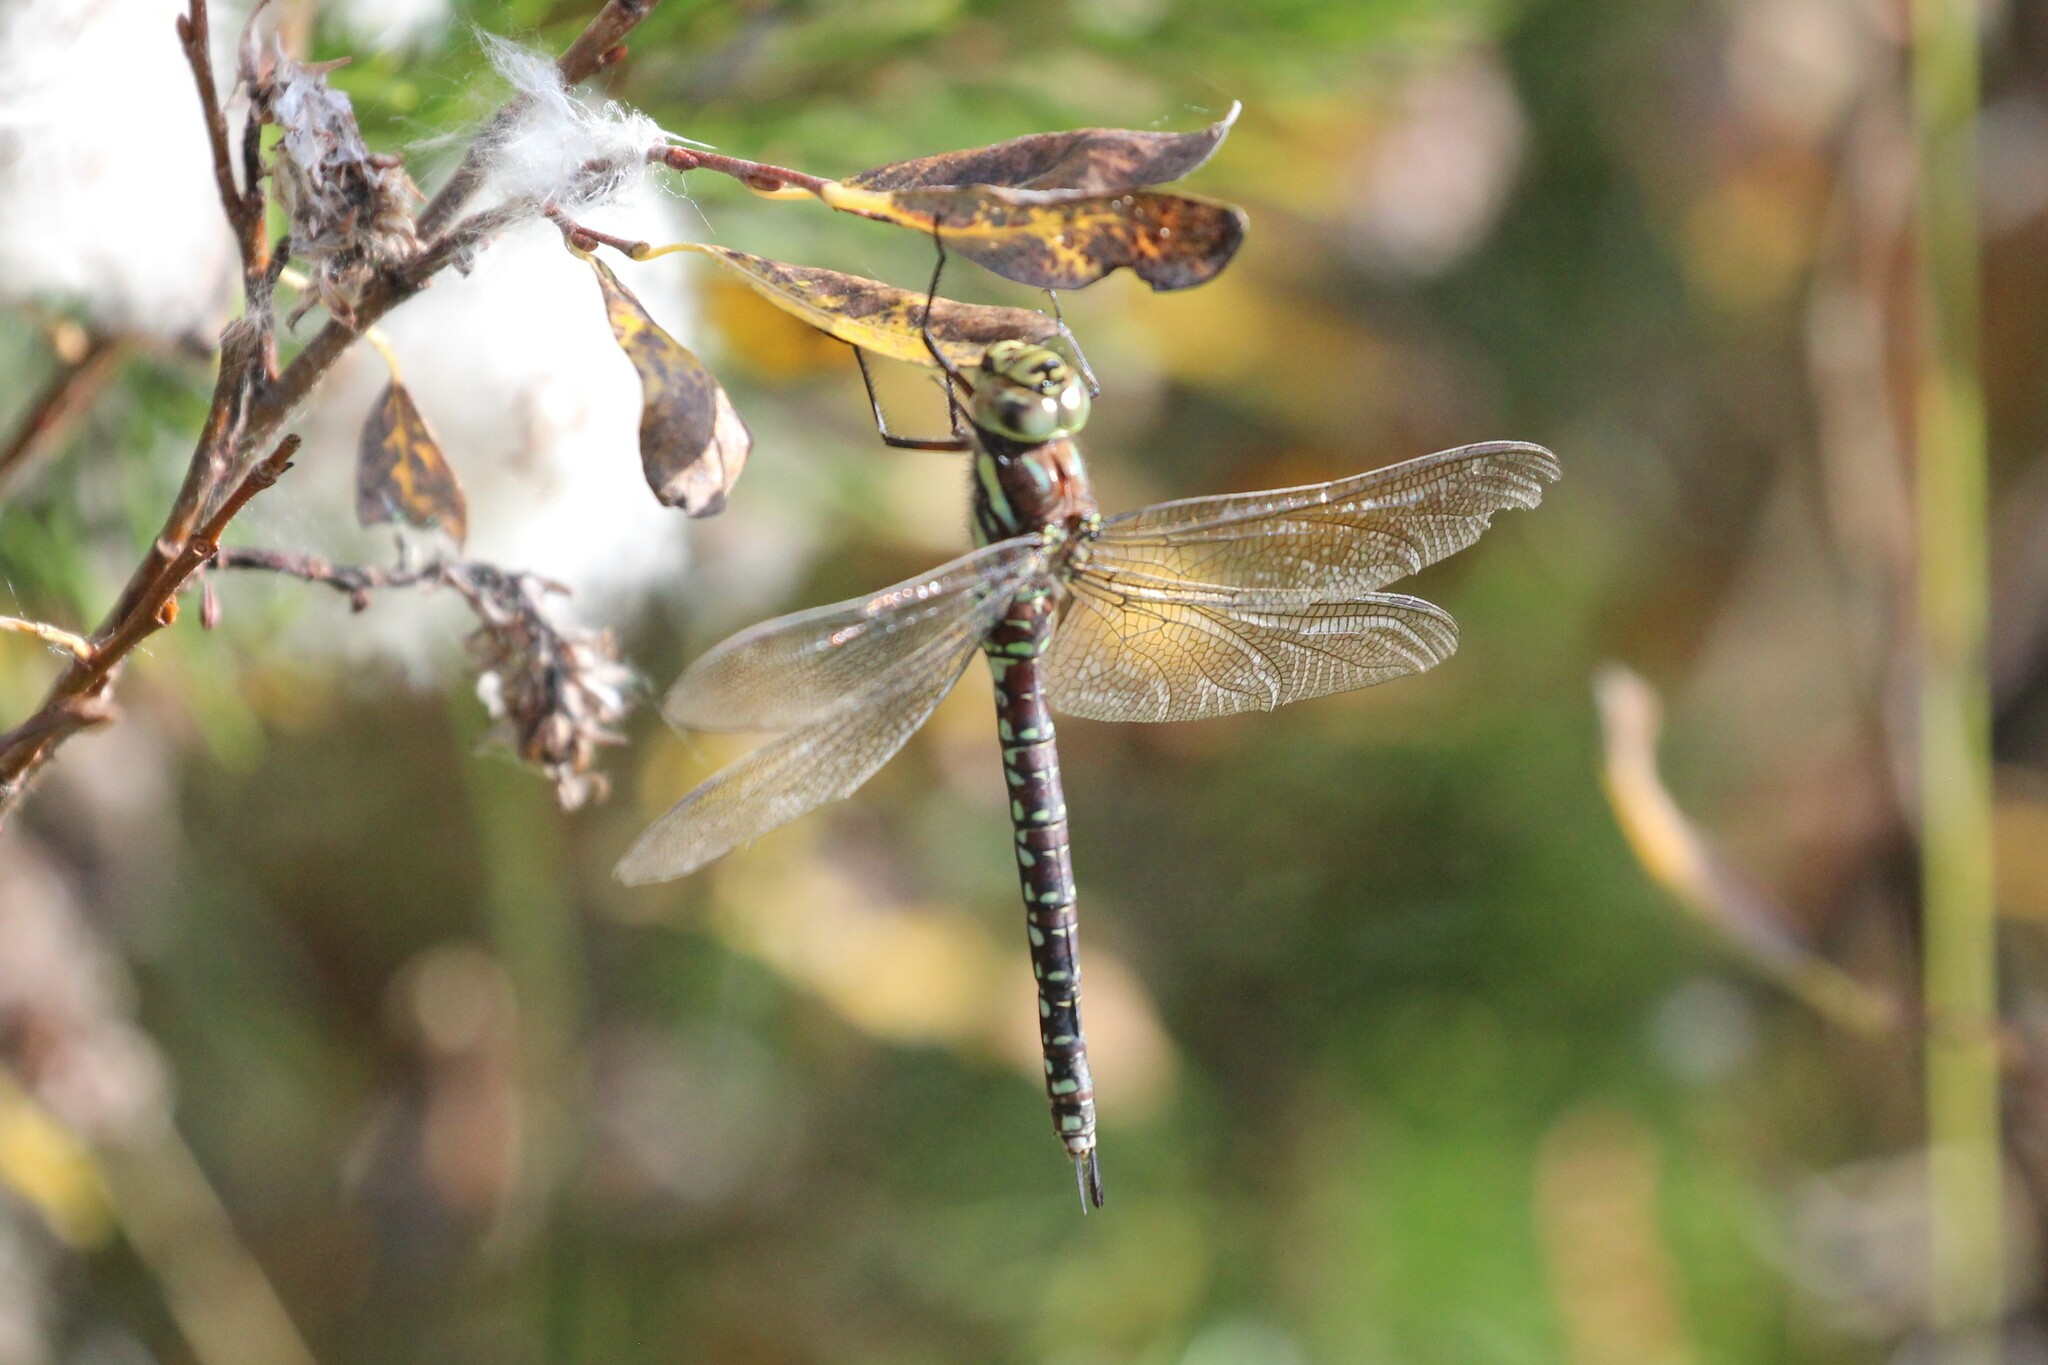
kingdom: Animalia
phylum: Arthropoda
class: Insecta
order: Odonata
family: Aeshnidae
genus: Aeshna
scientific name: Aeshna juncea
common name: Moorland hawker
